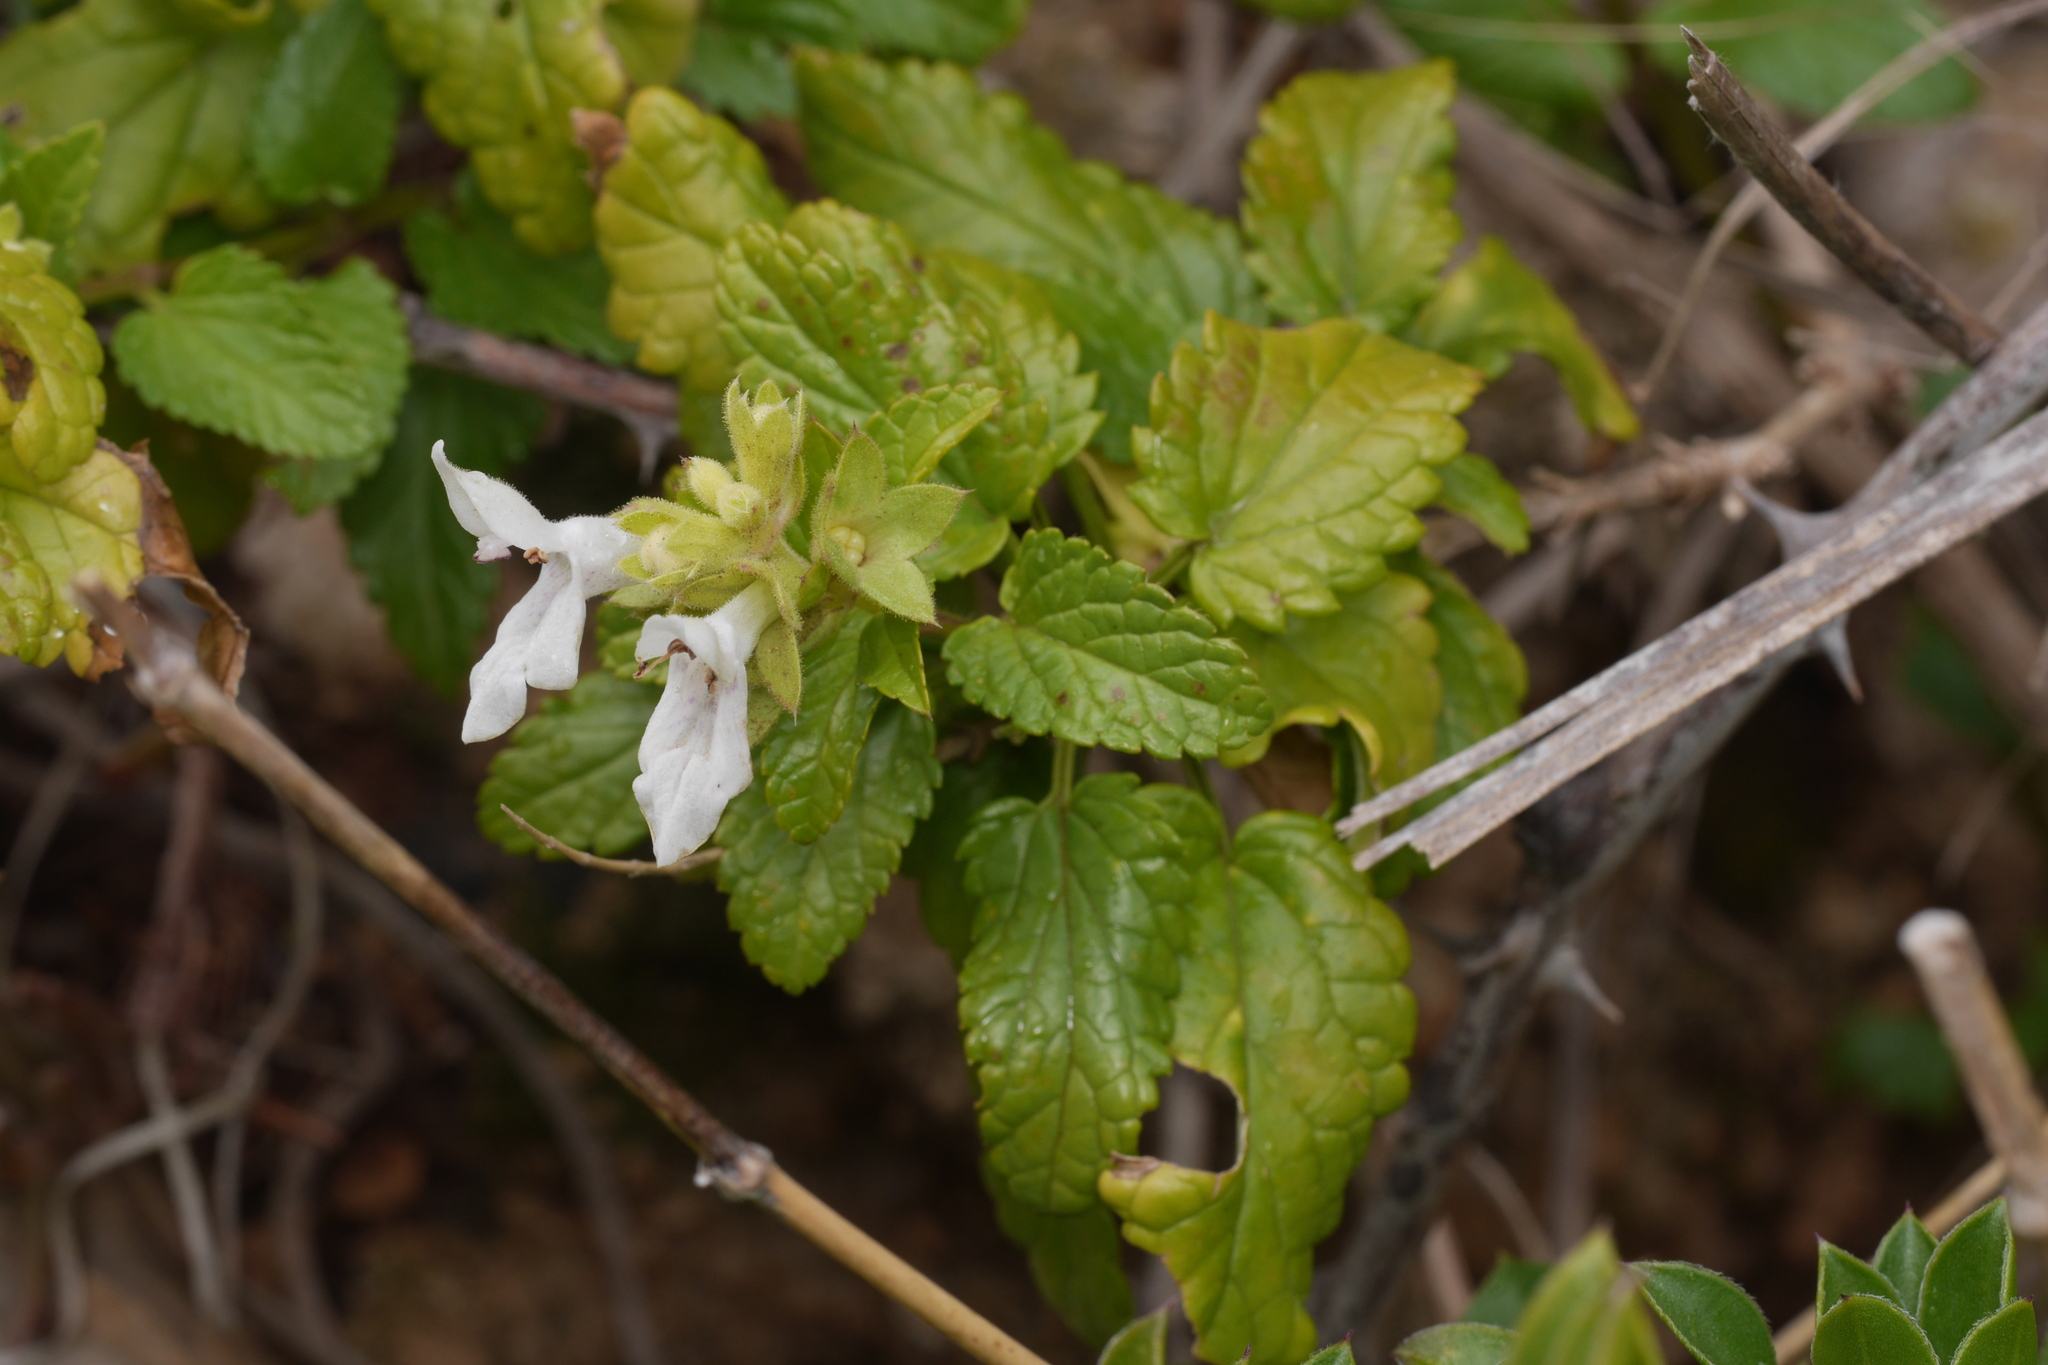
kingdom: Plantae
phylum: Tracheophyta
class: Magnoliopsida
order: Lamiales
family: Lamiaceae
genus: Prasium
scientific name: Prasium majus
